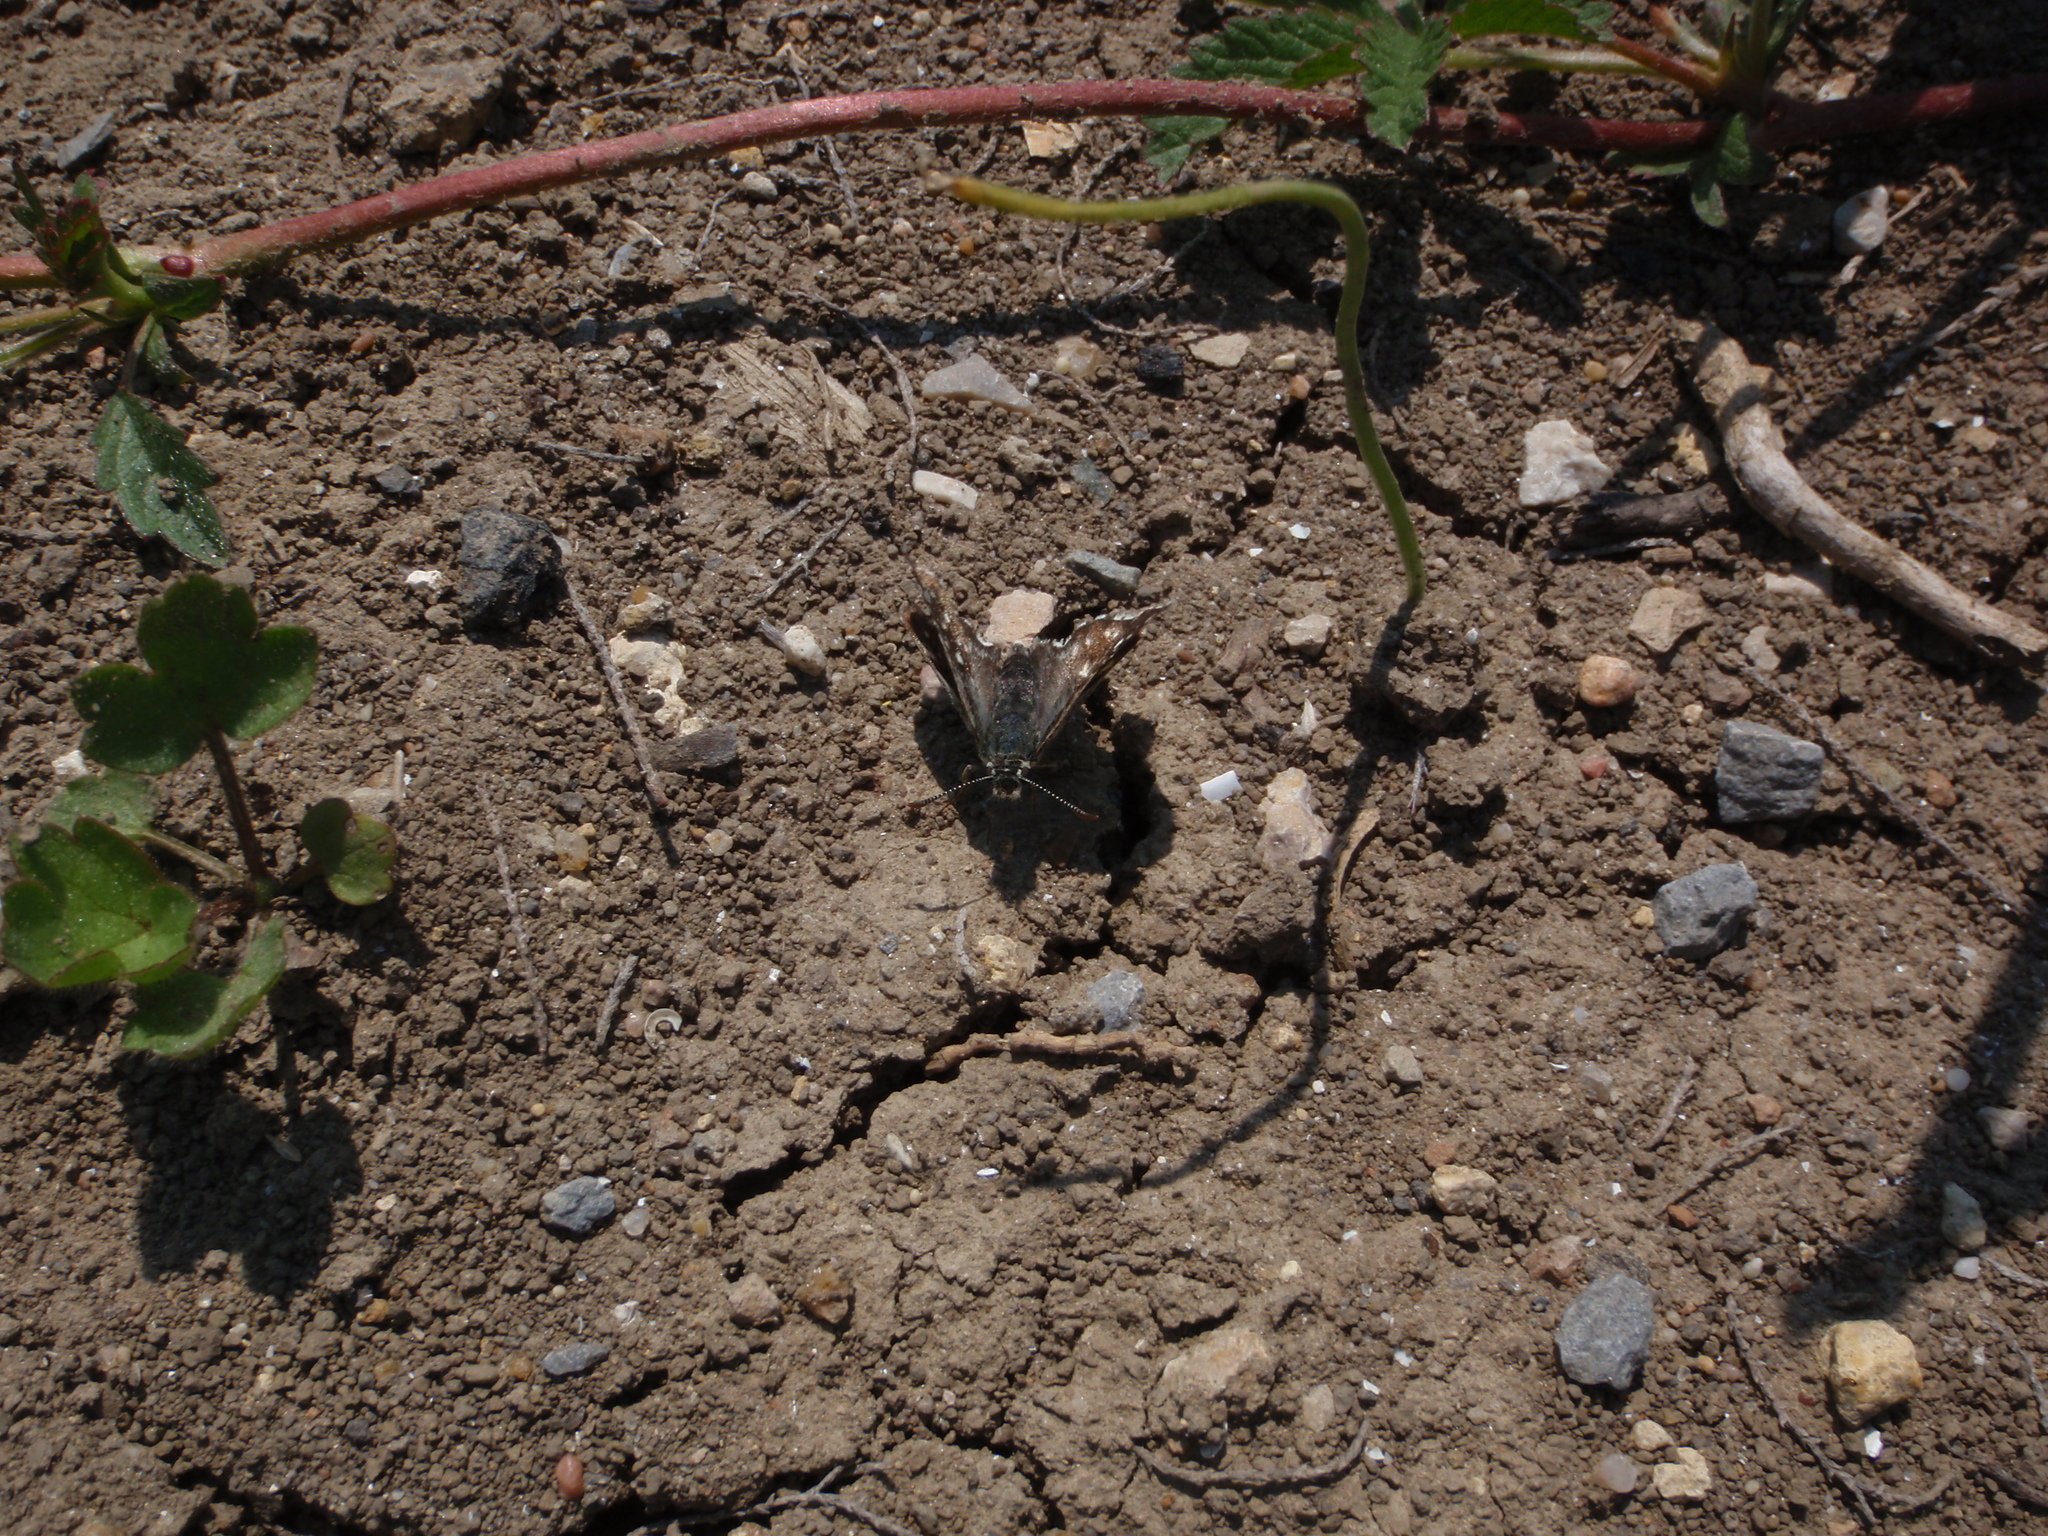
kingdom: Animalia
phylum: Arthropoda
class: Insecta
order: Lepidoptera
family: Hesperiidae
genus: Pyrgus
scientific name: Pyrgus malvoides
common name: Southern grizzled skipper
